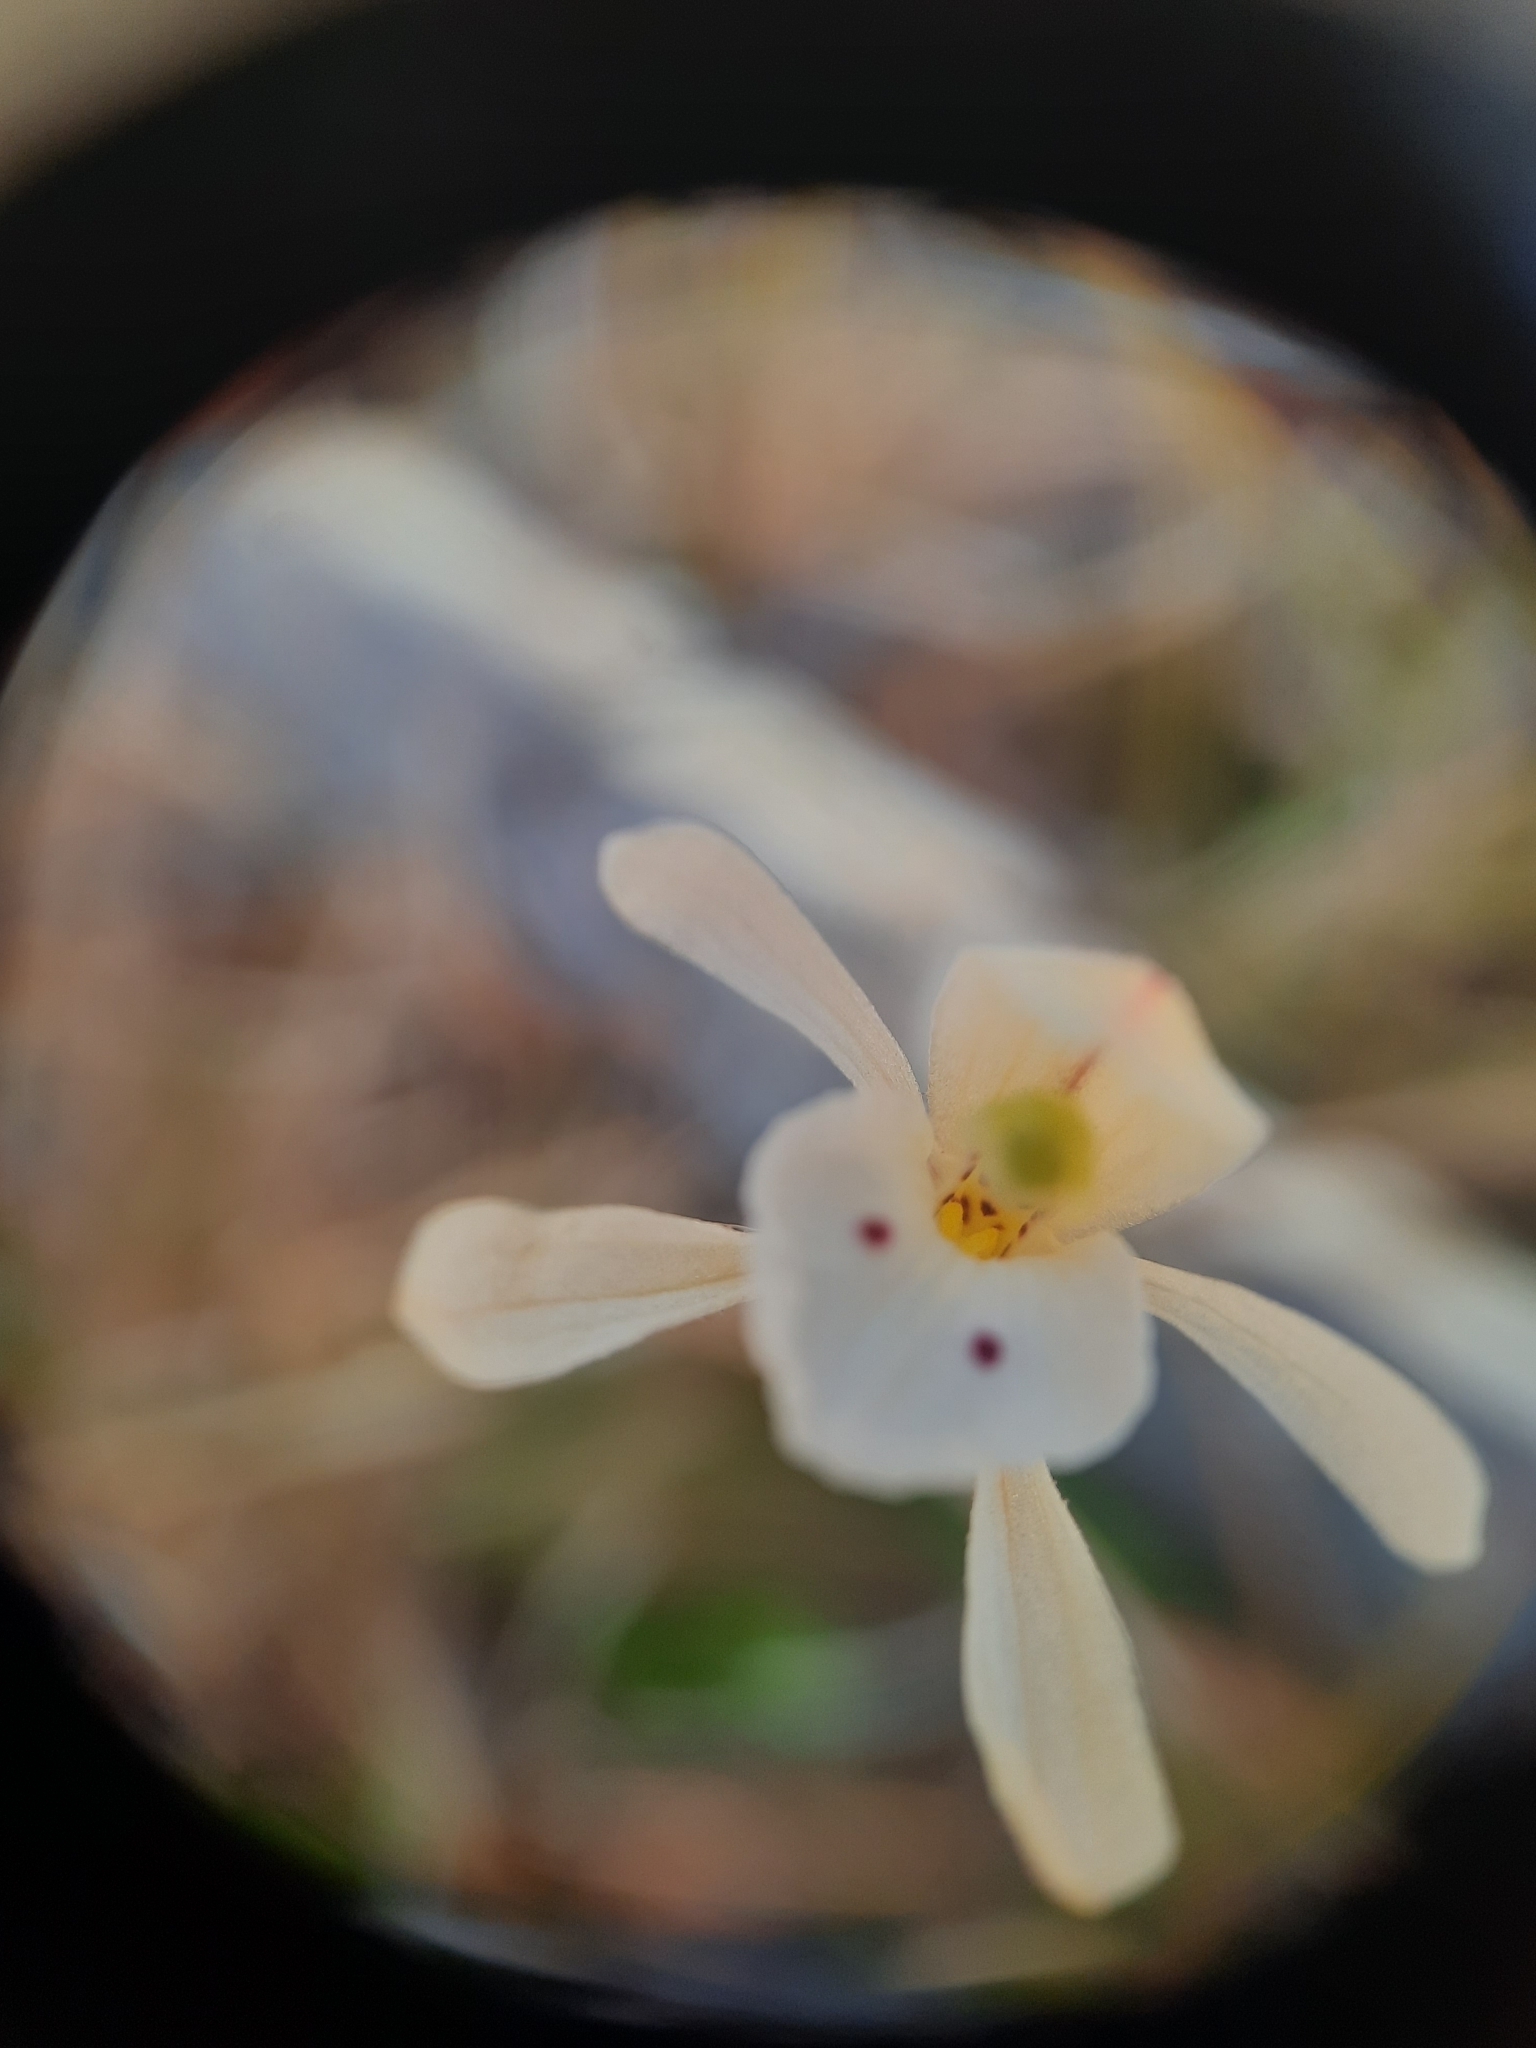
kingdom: Plantae
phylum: Tracheophyta
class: Liliopsida
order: Asparagales
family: Orchidaceae
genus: Aporostylis
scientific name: Aporostylis bifolia
